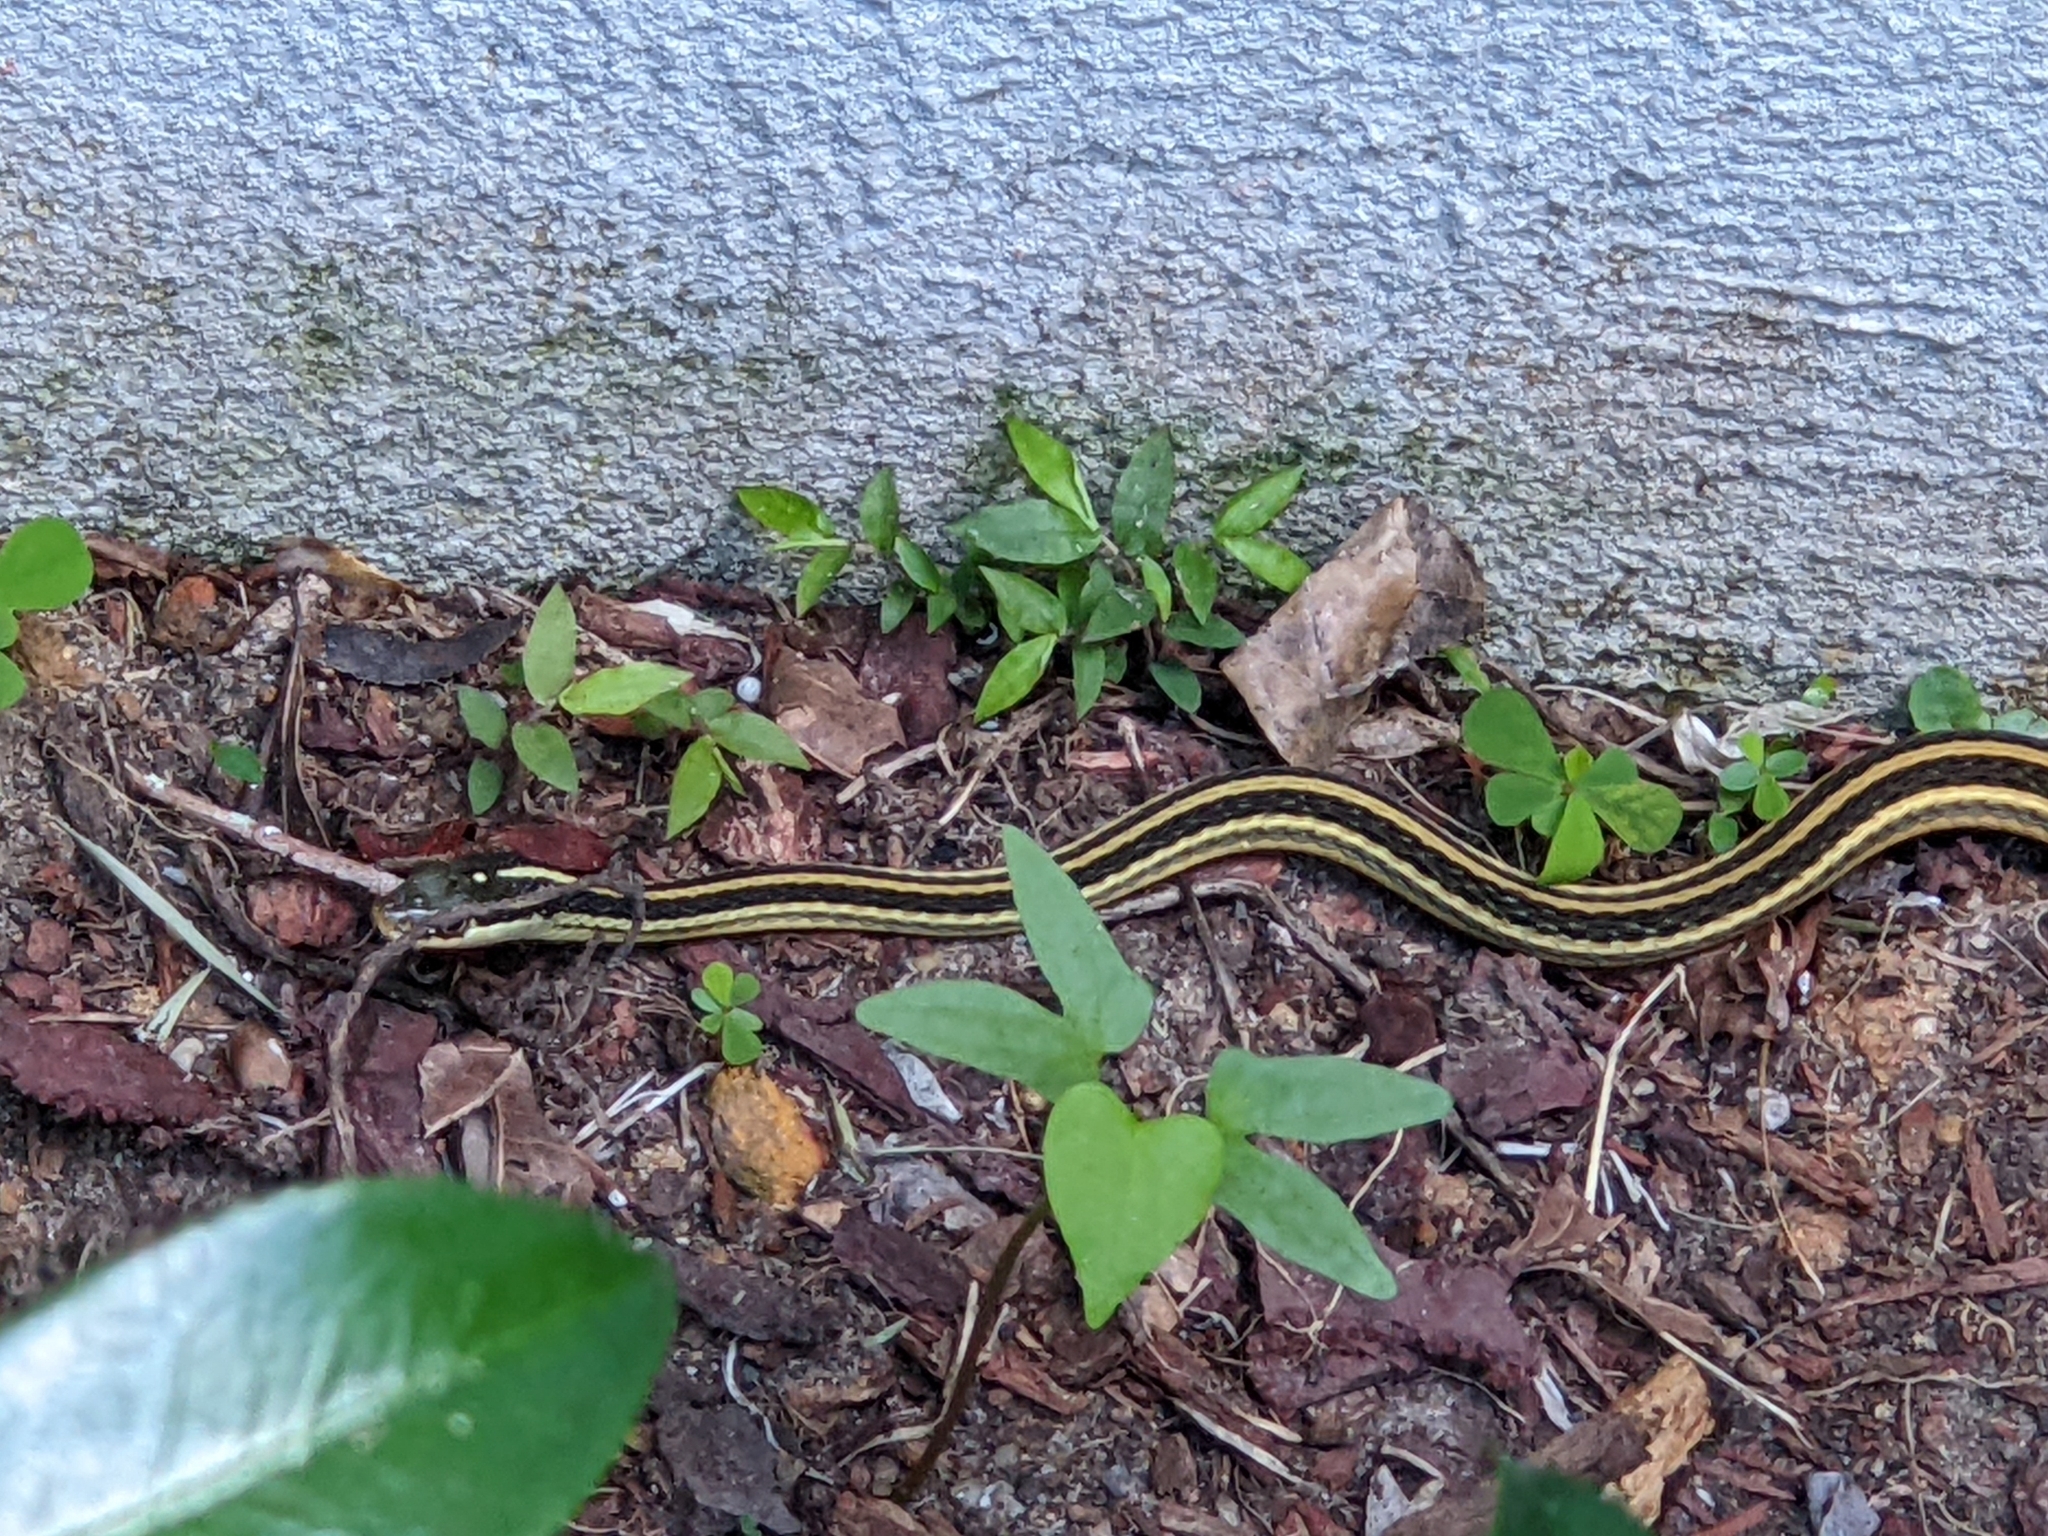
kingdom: Animalia
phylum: Chordata
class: Squamata
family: Colubridae
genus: Thamnophis
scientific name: Thamnophis proximus
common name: Western ribbon snake
